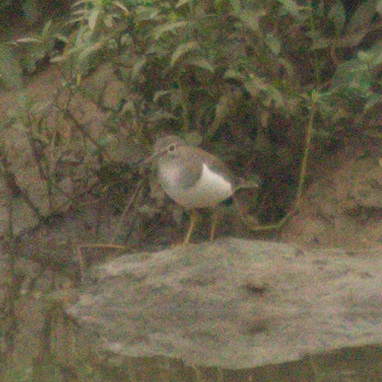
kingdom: Animalia
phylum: Chordata
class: Aves
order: Charadriiformes
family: Scolopacidae
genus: Actitis
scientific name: Actitis hypoleucos
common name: Common sandpiper
